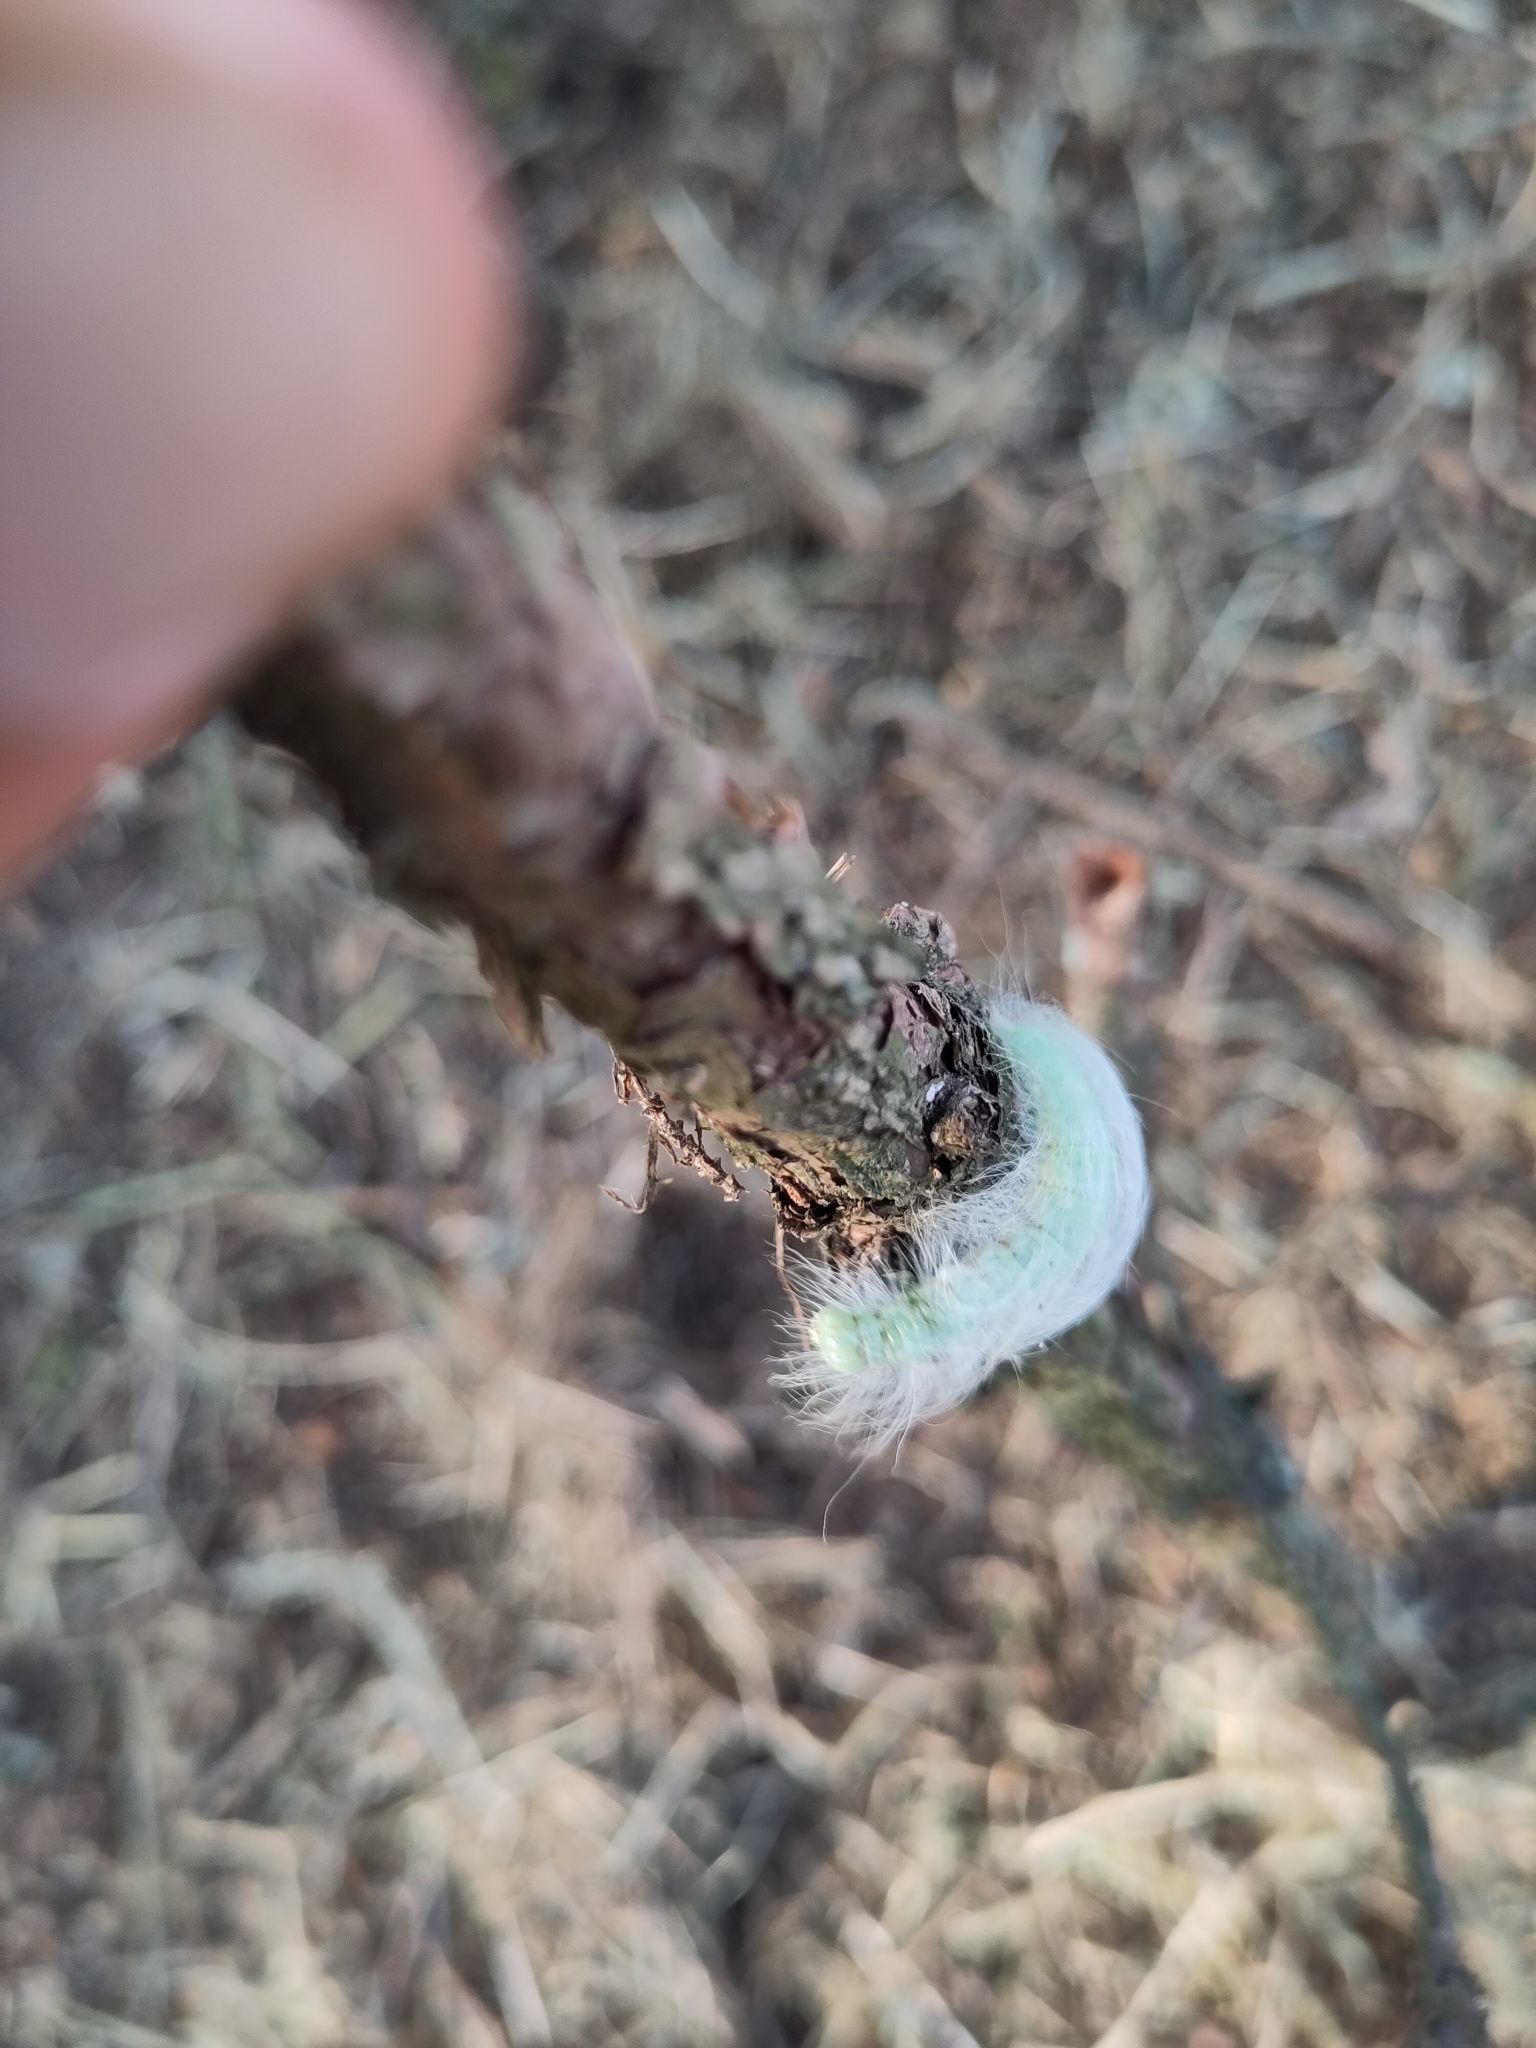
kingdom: Animalia
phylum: Arthropoda
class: Insecta
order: Lepidoptera
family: Noctuidae
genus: Acronicta
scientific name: Acronicta leporina
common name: Miller
